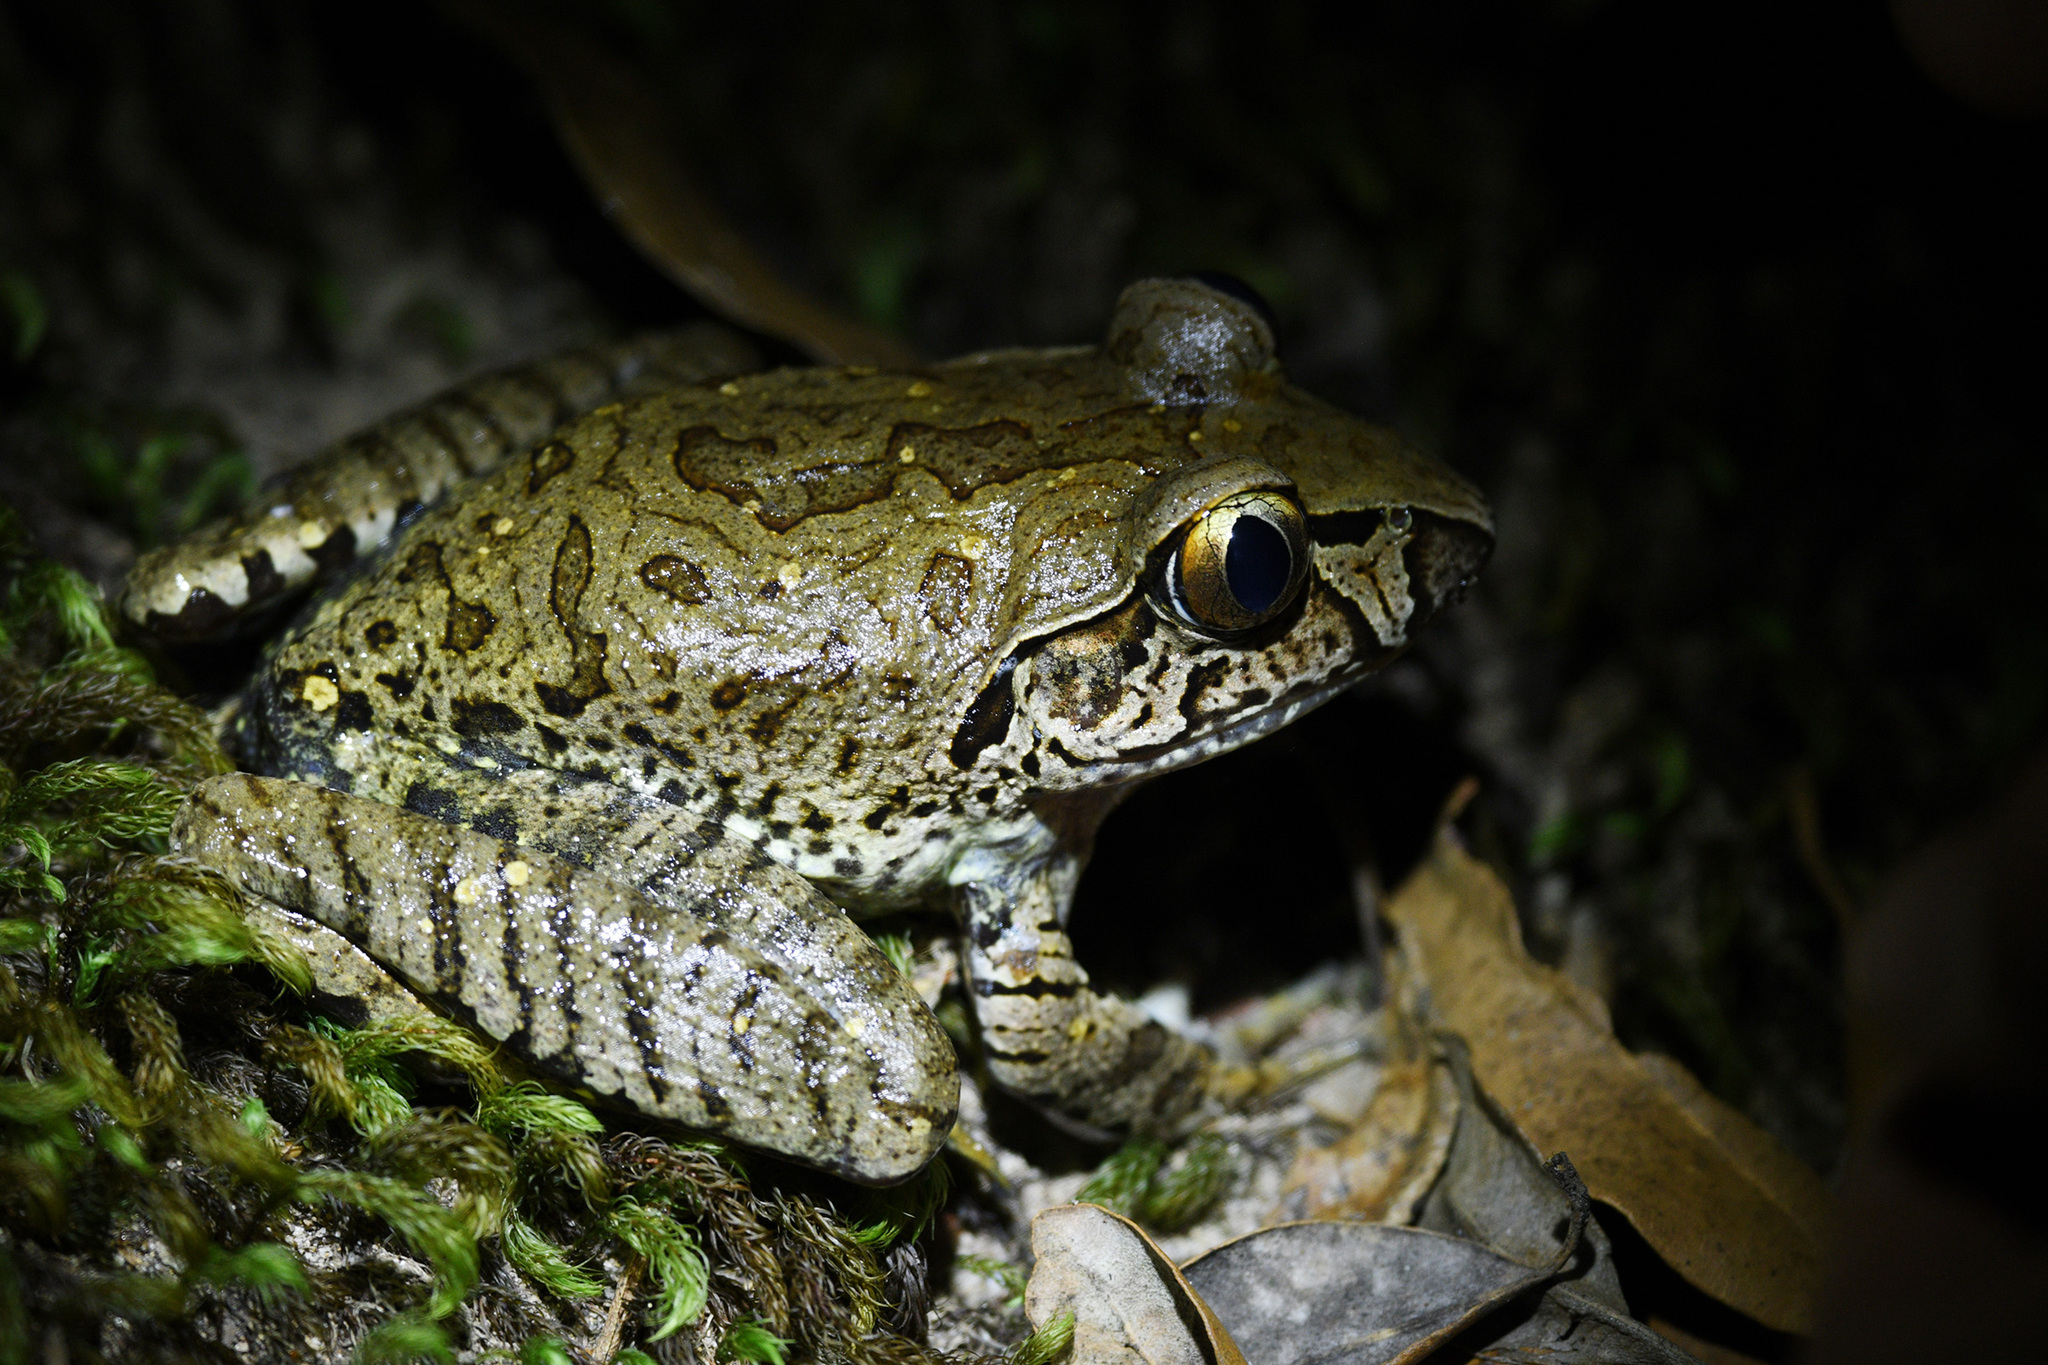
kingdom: Animalia
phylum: Chordata
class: Amphibia
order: Anura
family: Myobatrachidae
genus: Mixophyes
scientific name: Mixophyes iteratus
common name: Giant barred river-frog
